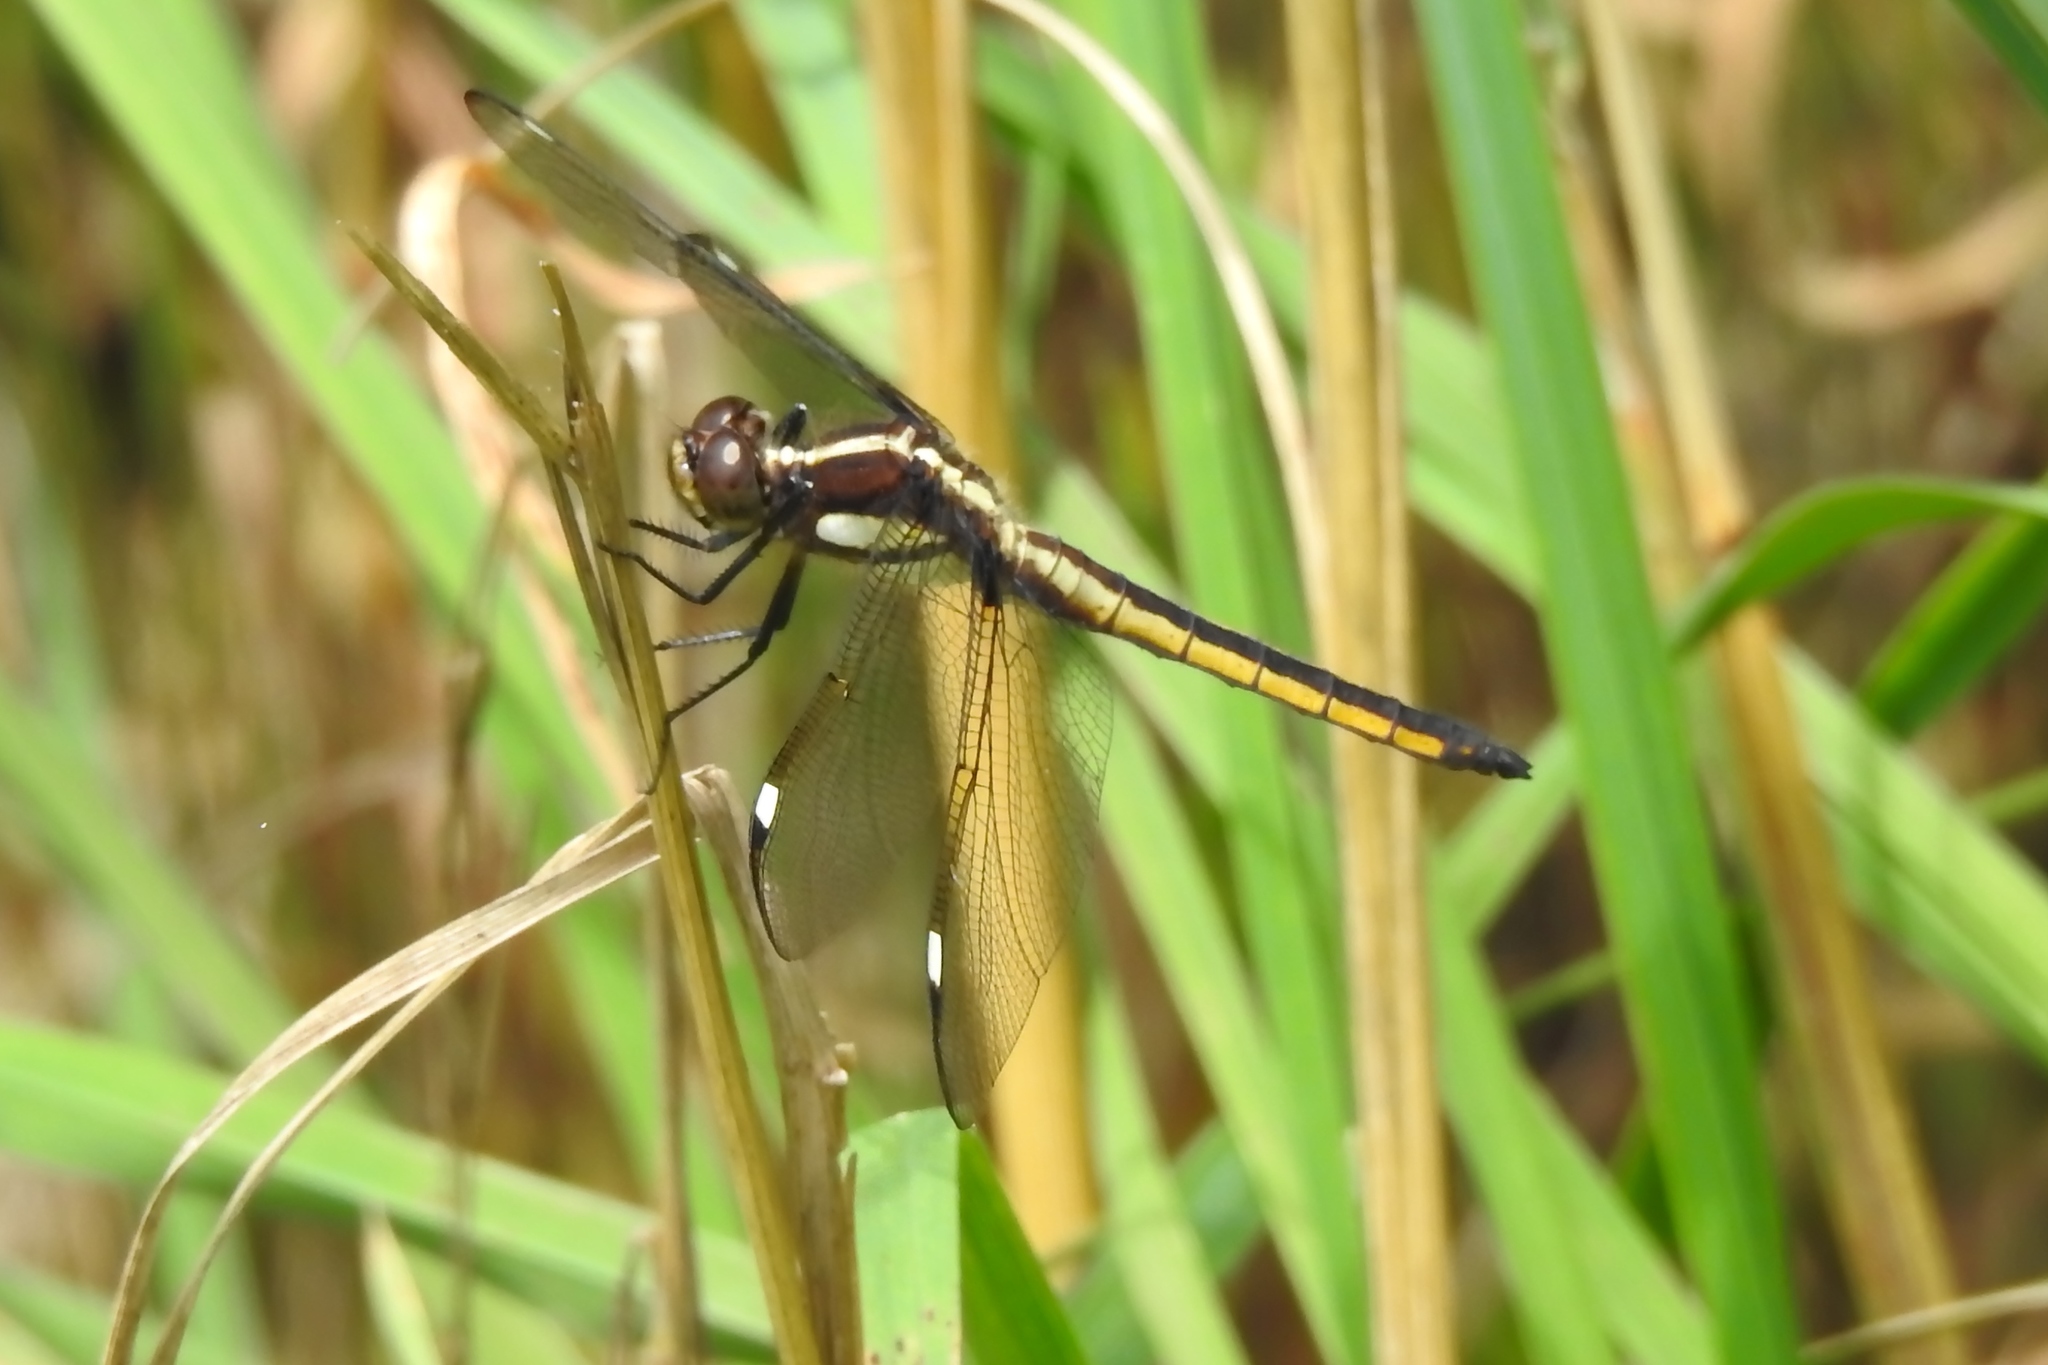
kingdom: Animalia
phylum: Arthropoda
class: Insecta
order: Odonata
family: Libellulidae
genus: Libellula
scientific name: Libellula cyanea
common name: Spangled skimmer
